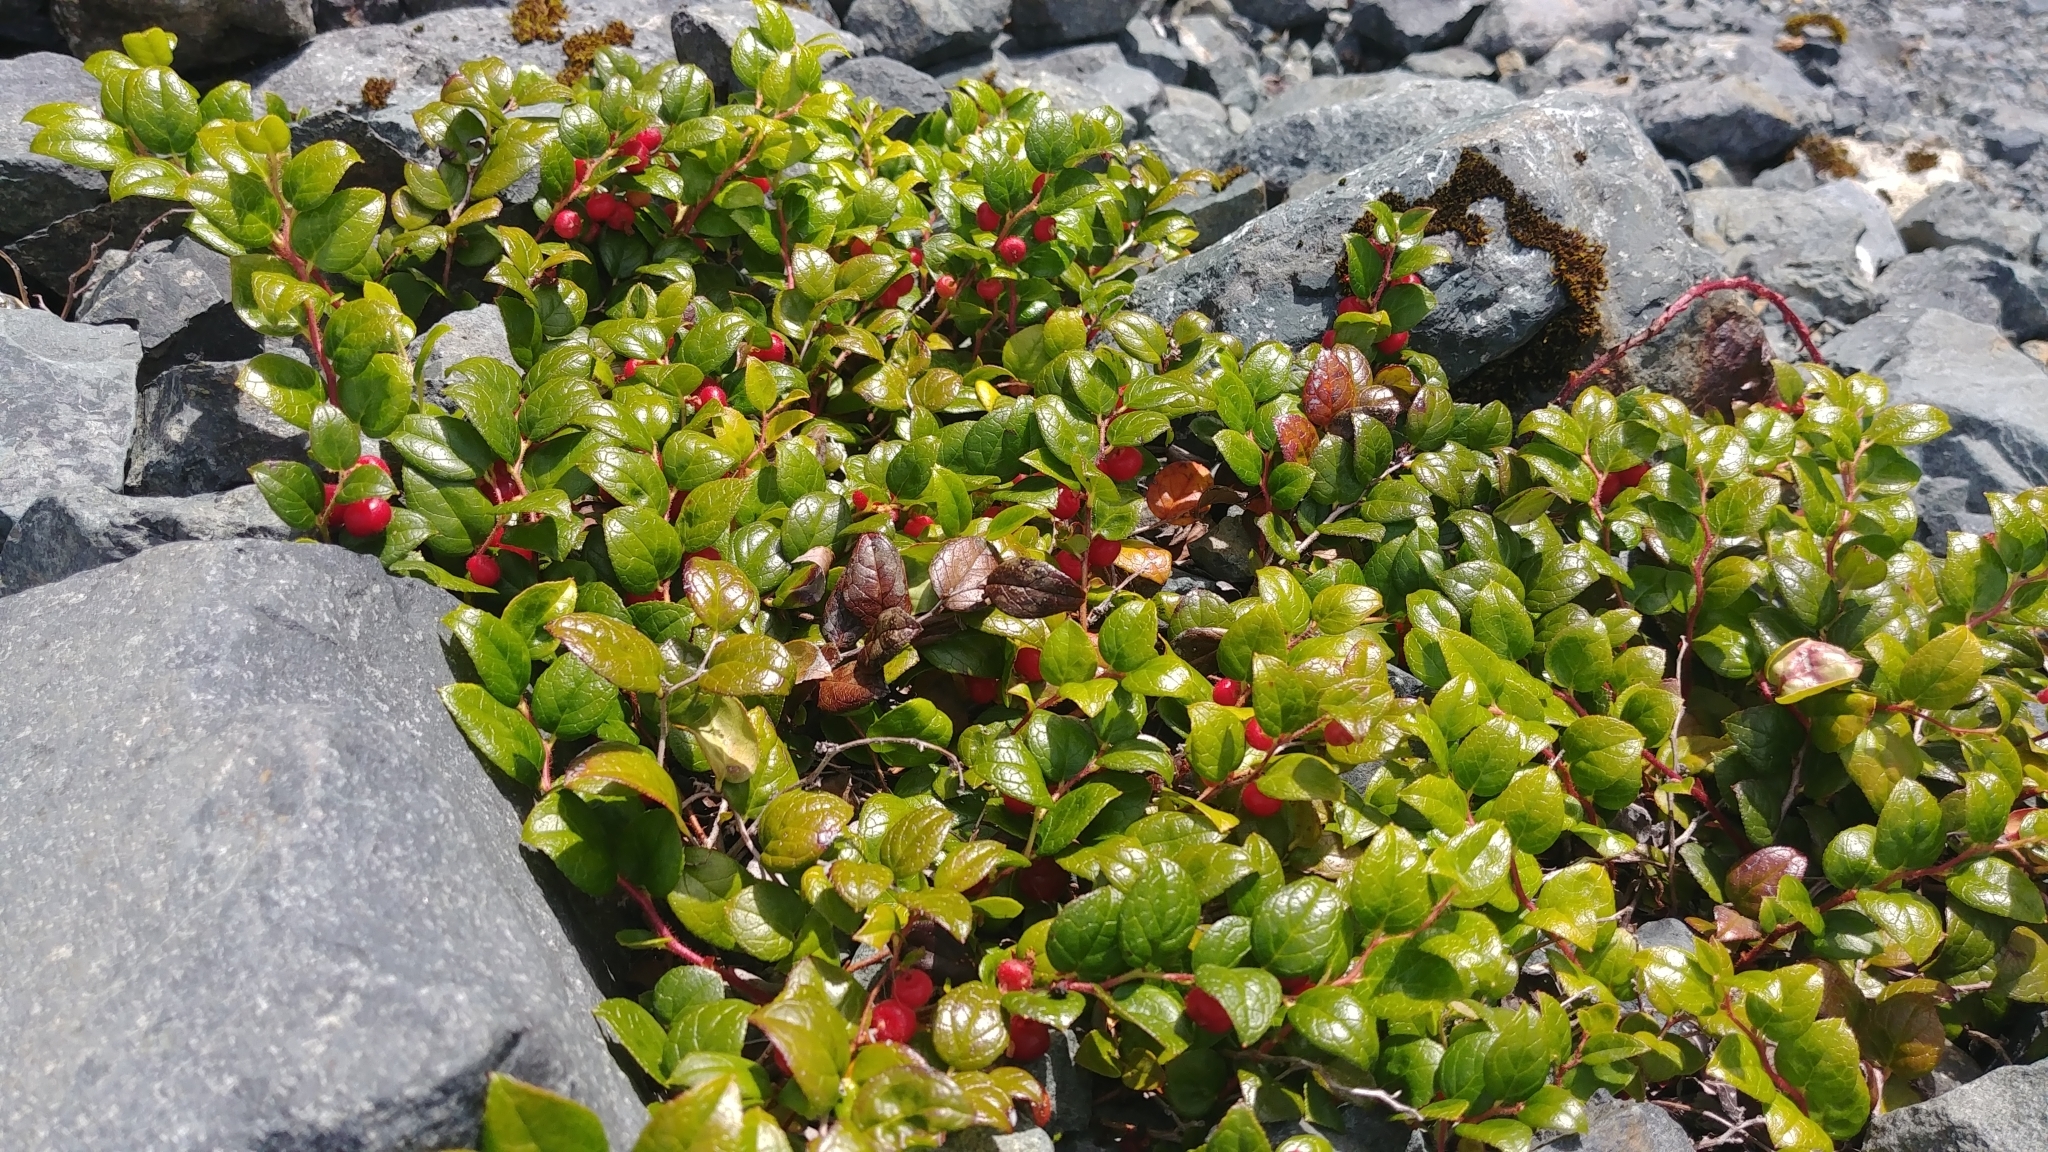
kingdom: Plantae
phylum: Tracheophyta
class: Magnoliopsida
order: Ericales
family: Ericaceae
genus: Gaultheria
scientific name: Gaultheria ovatifolia
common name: Oregon wintergreen
